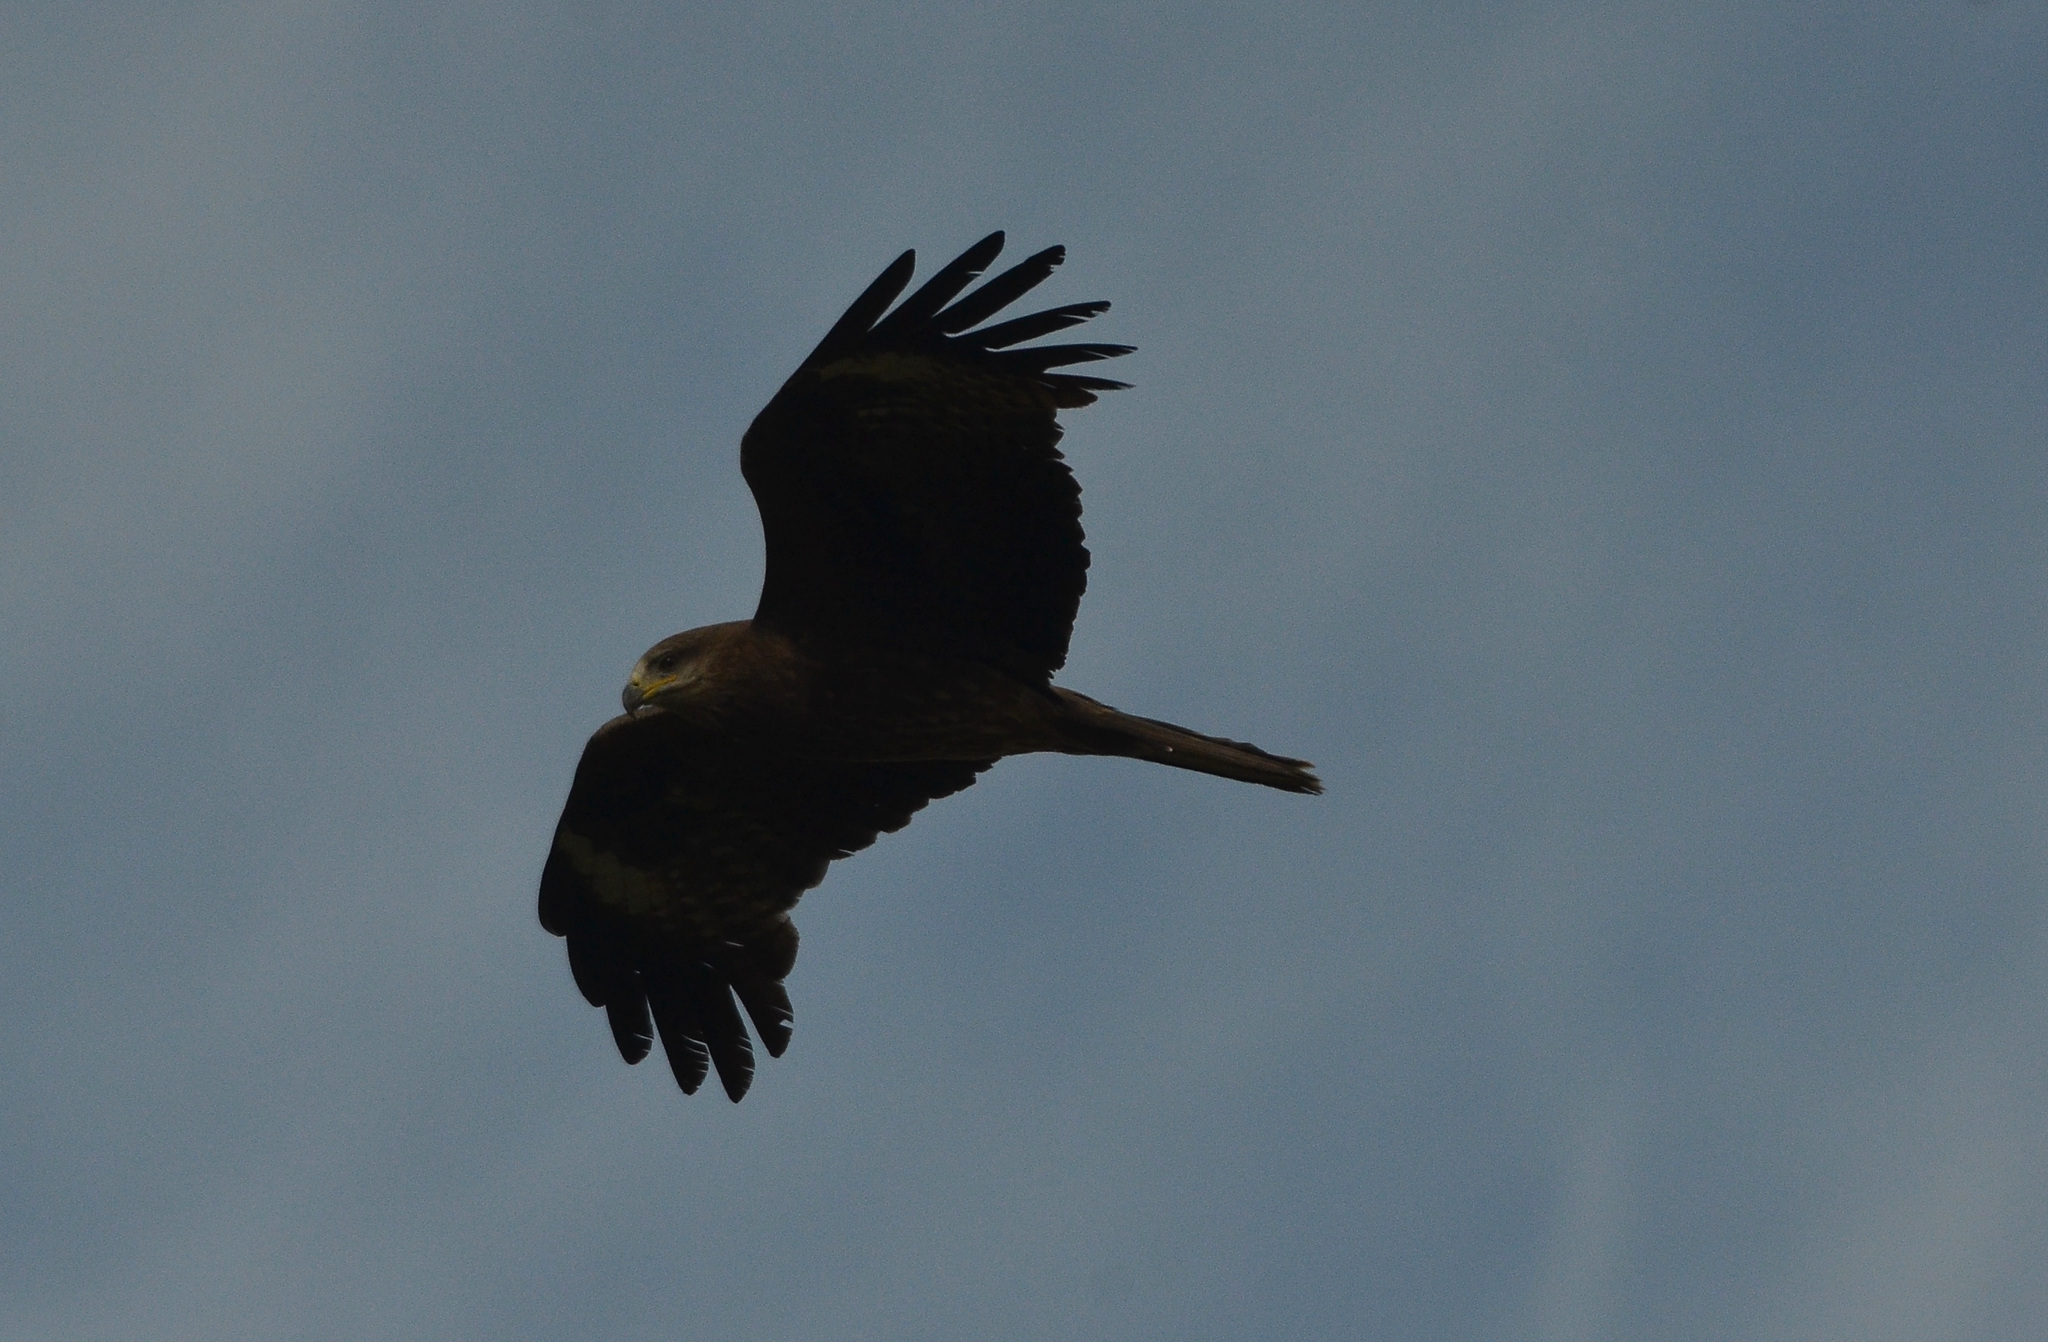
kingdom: Animalia
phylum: Chordata
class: Aves
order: Accipitriformes
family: Accipitridae
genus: Milvus
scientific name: Milvus migrans
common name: Black kite
